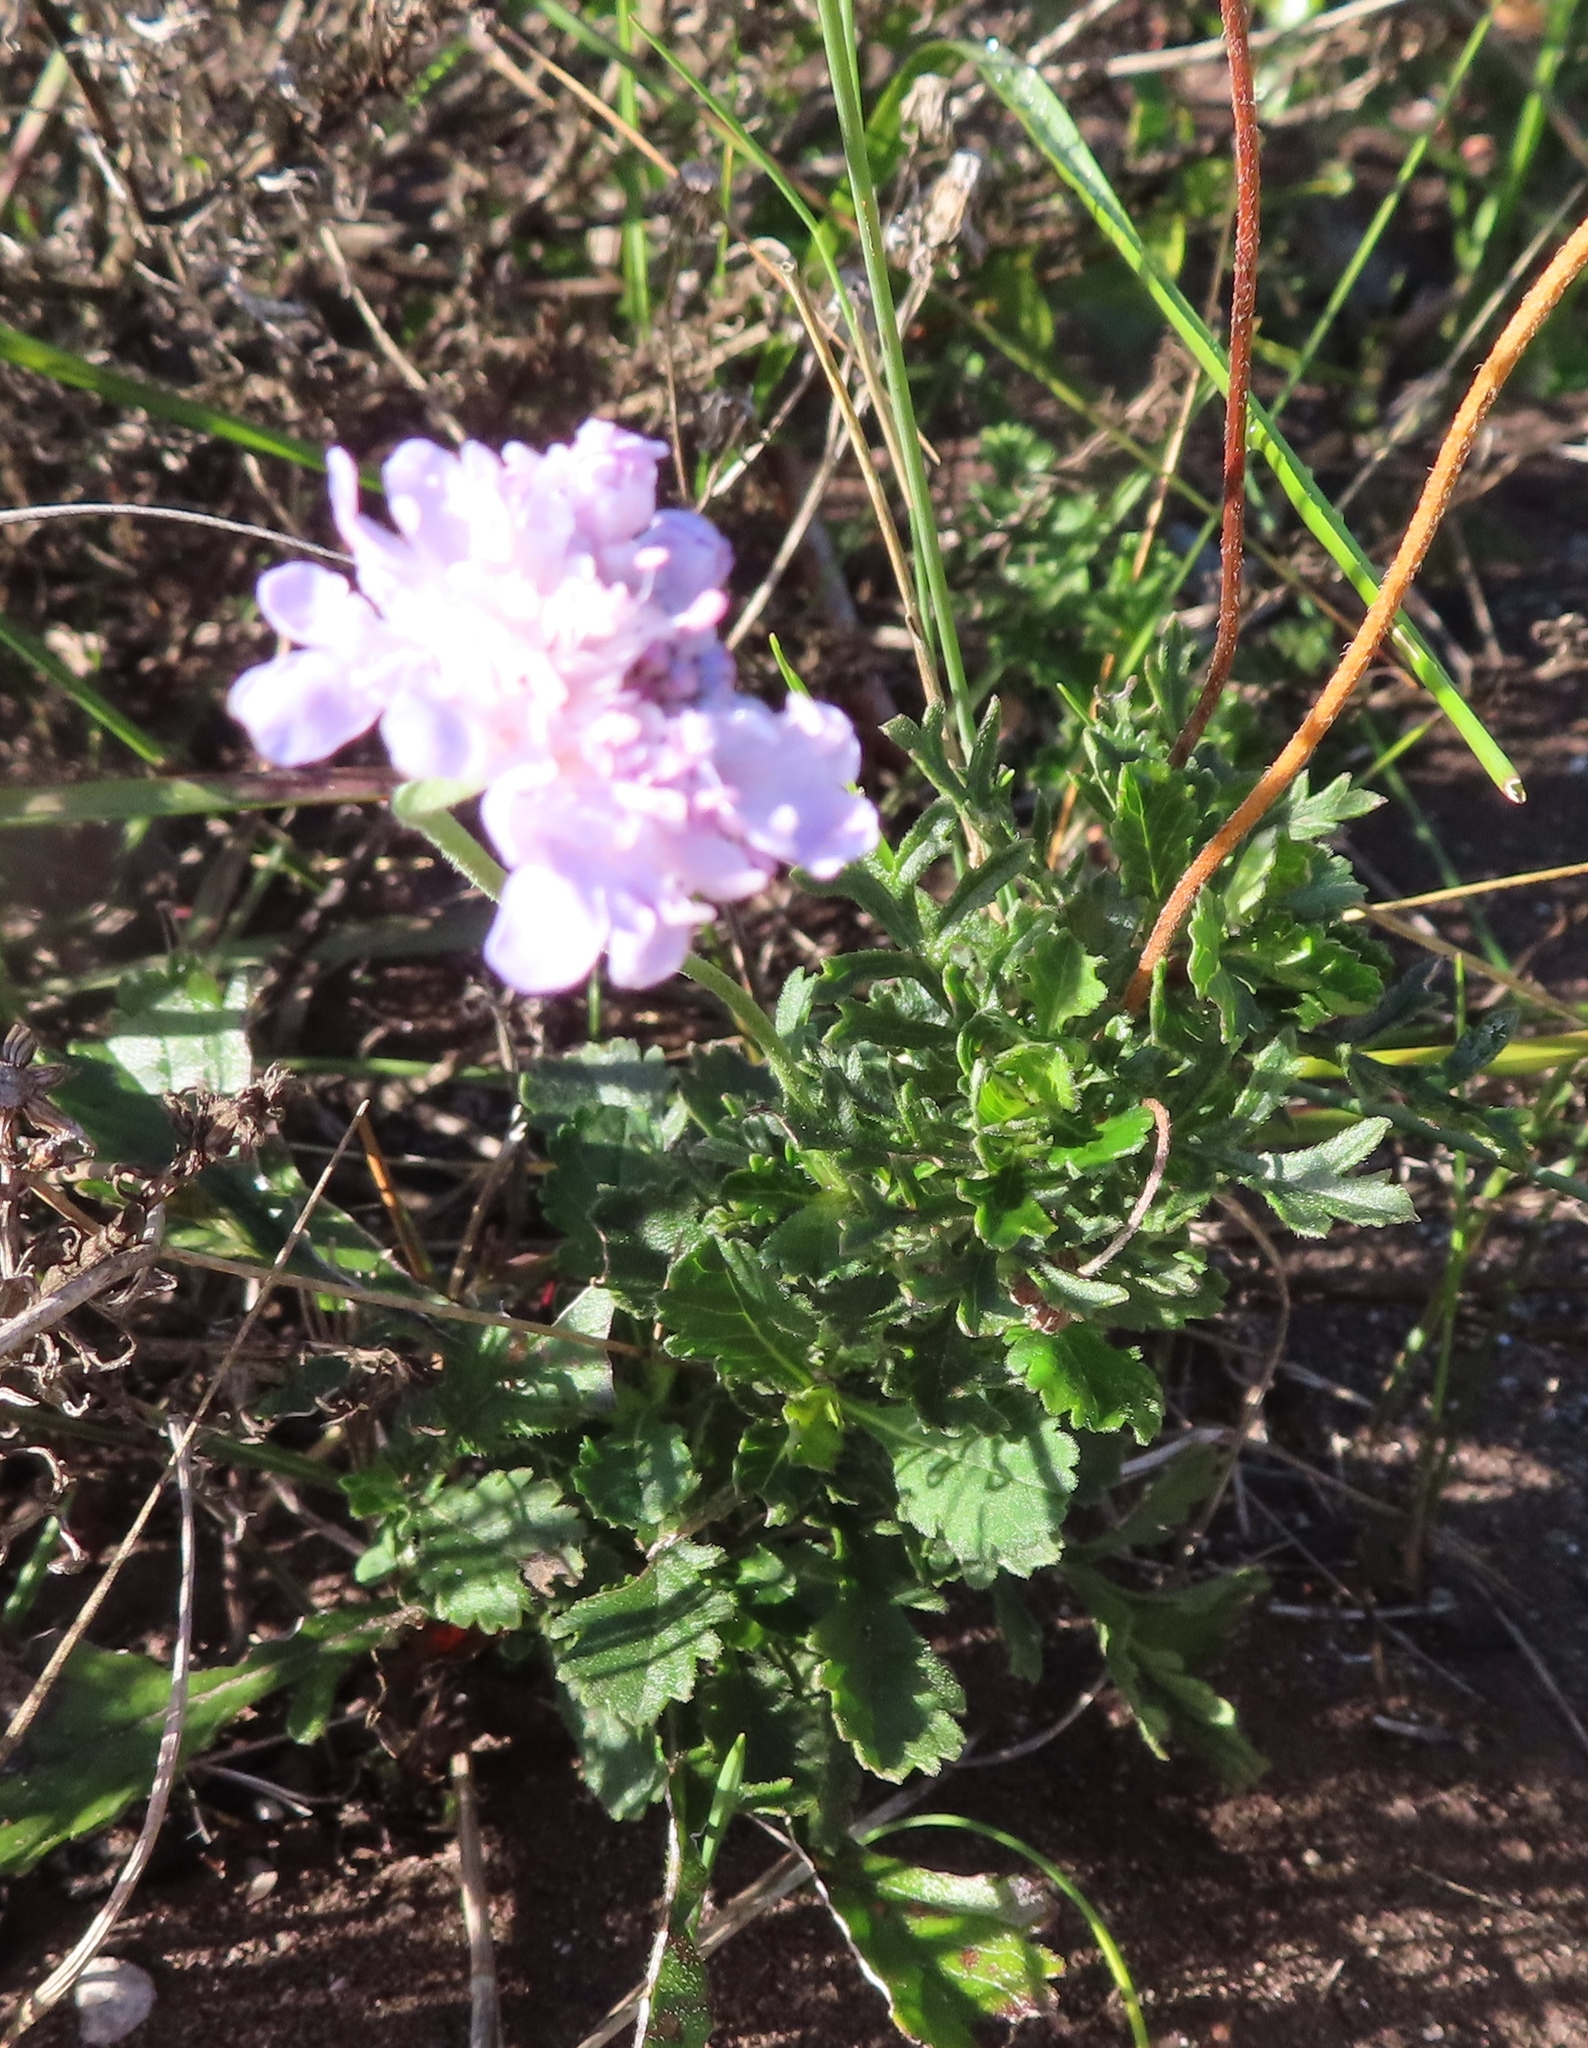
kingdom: Plantae
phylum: Tracheophyta
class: Magnoliopsida
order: Dipsacales
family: Caprifoliaceae
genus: Scabiosa
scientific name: Scabiosa columbaria
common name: Small scabious
